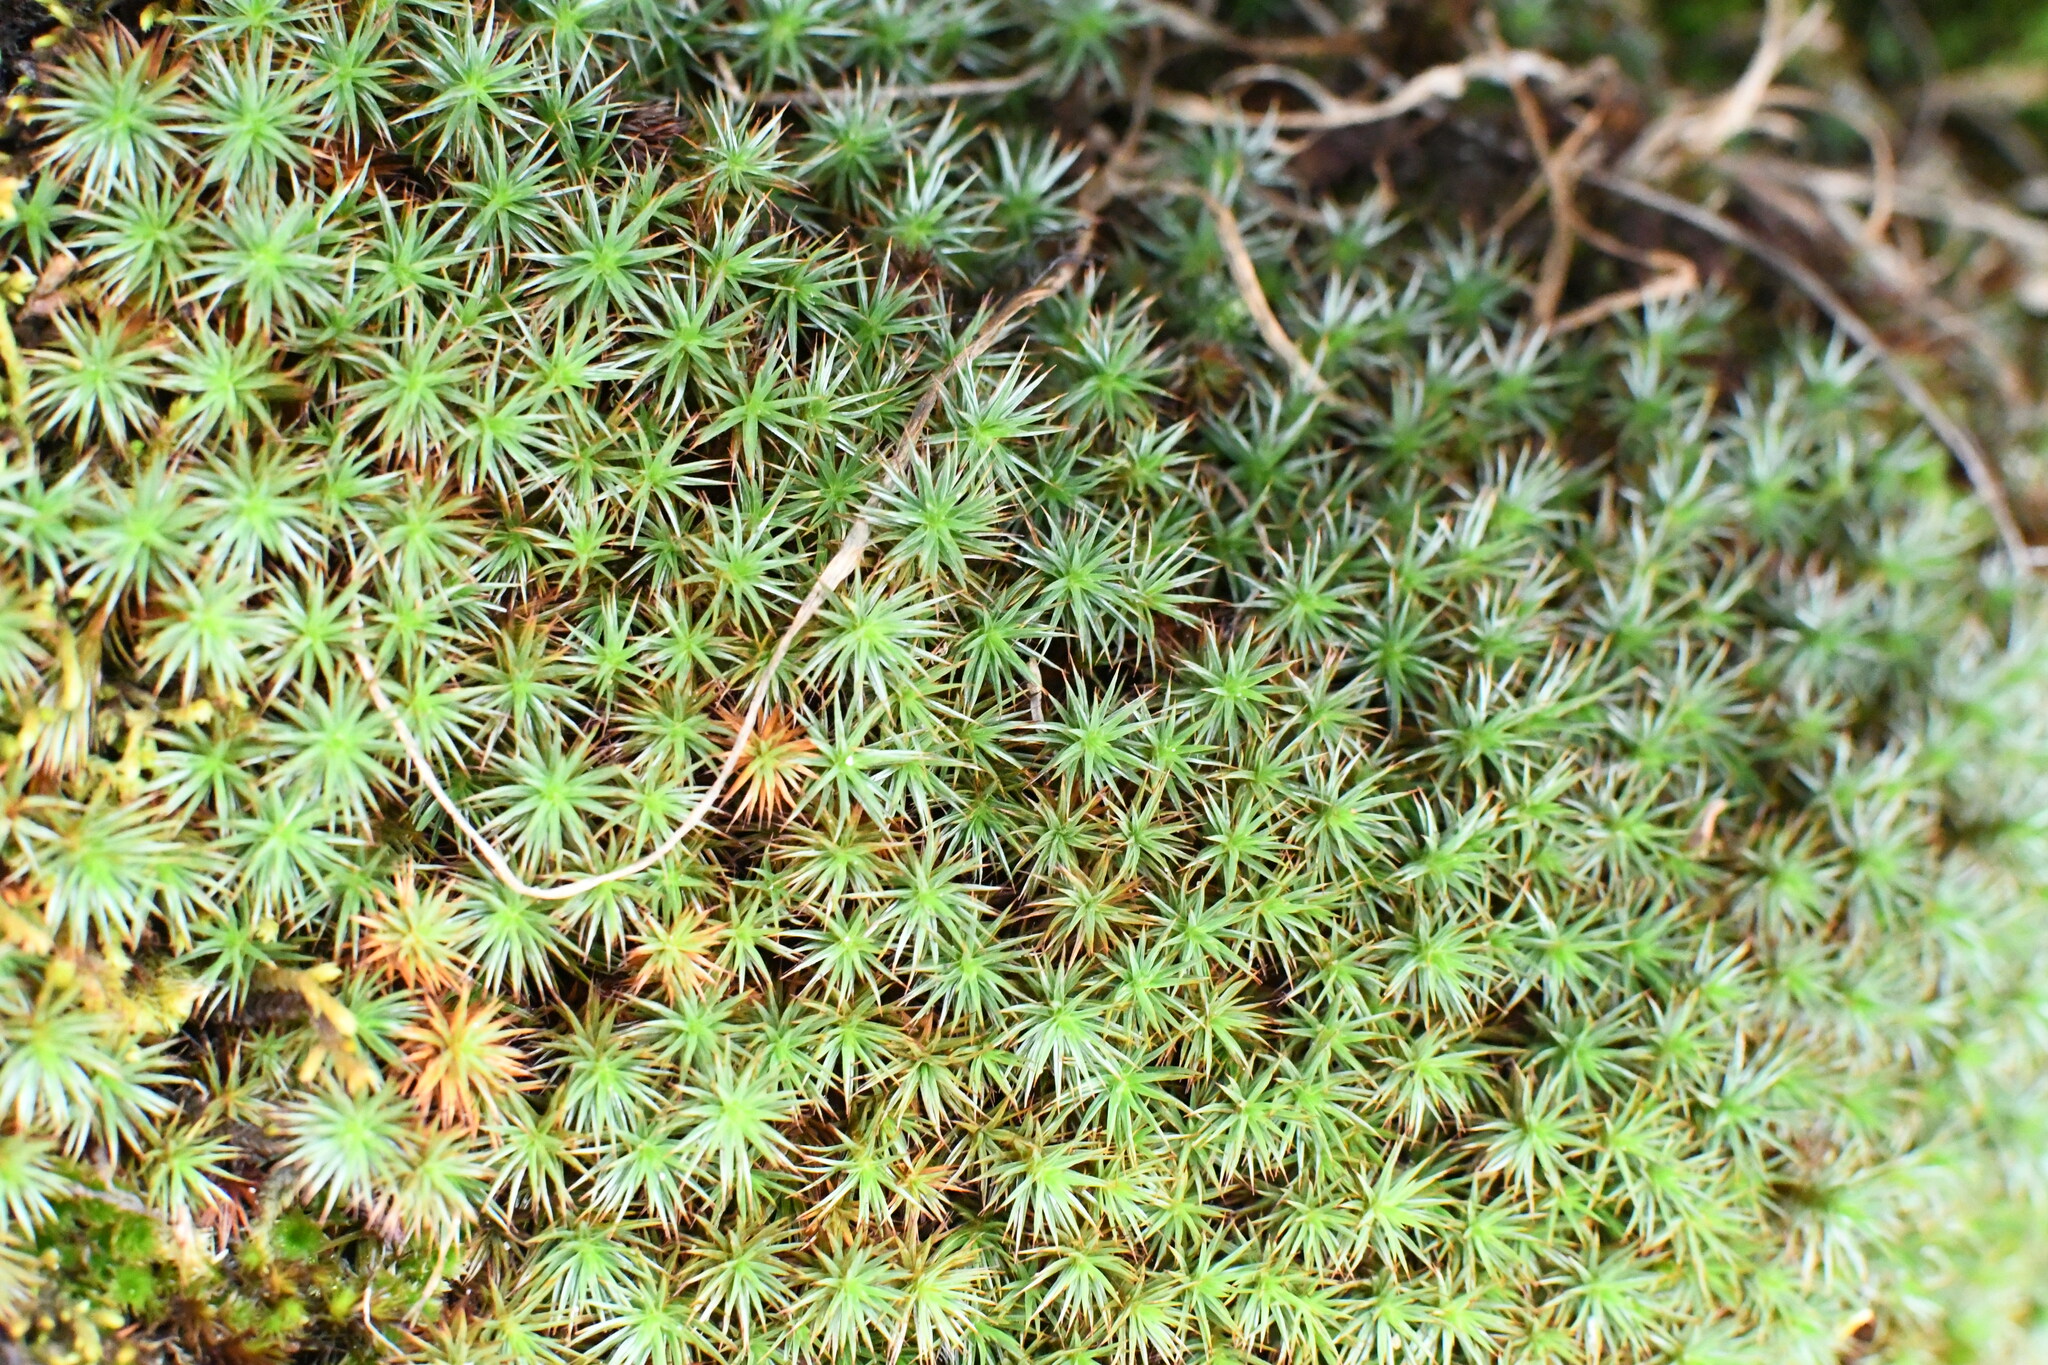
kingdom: Plantae
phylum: Bryophyta
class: Polytrichopsida
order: Polytrichales
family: Polytrichaceae
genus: Polytrichum
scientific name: Polytrichum juniperinum
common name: Juniper haircap moss
